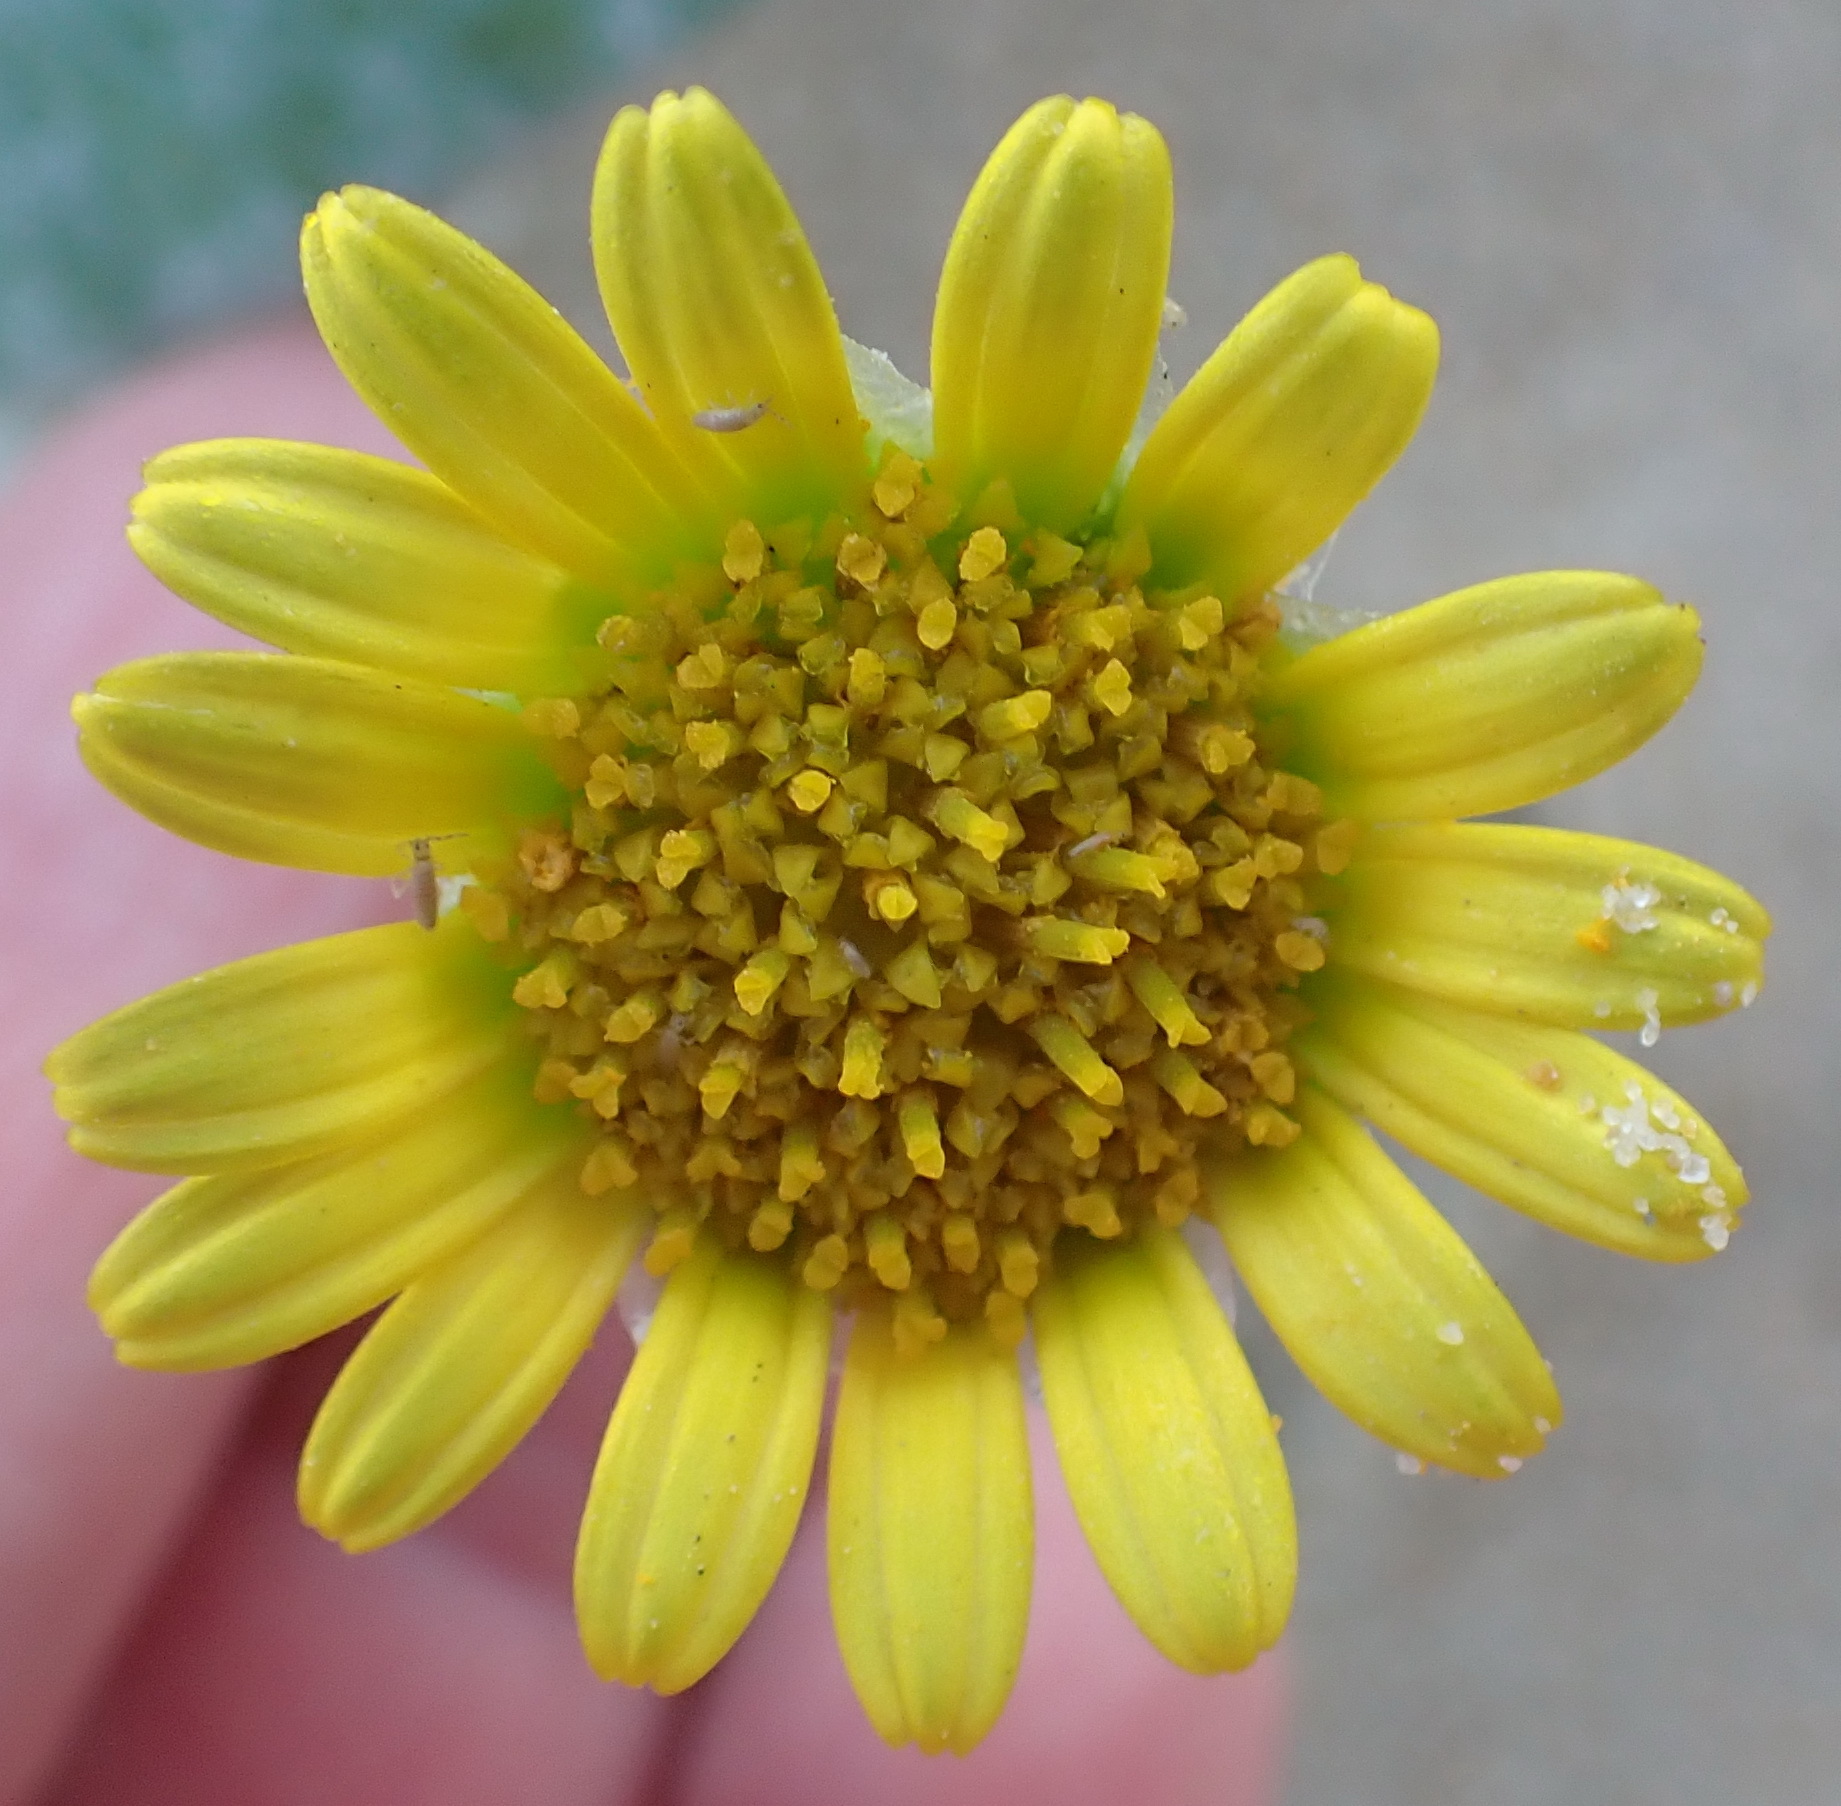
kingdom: Plantae
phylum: Tracheophyta
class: Magnoliopsida
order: Asterales
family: Asteraceae
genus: Arctotheca
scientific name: Arctotheca populifolia
